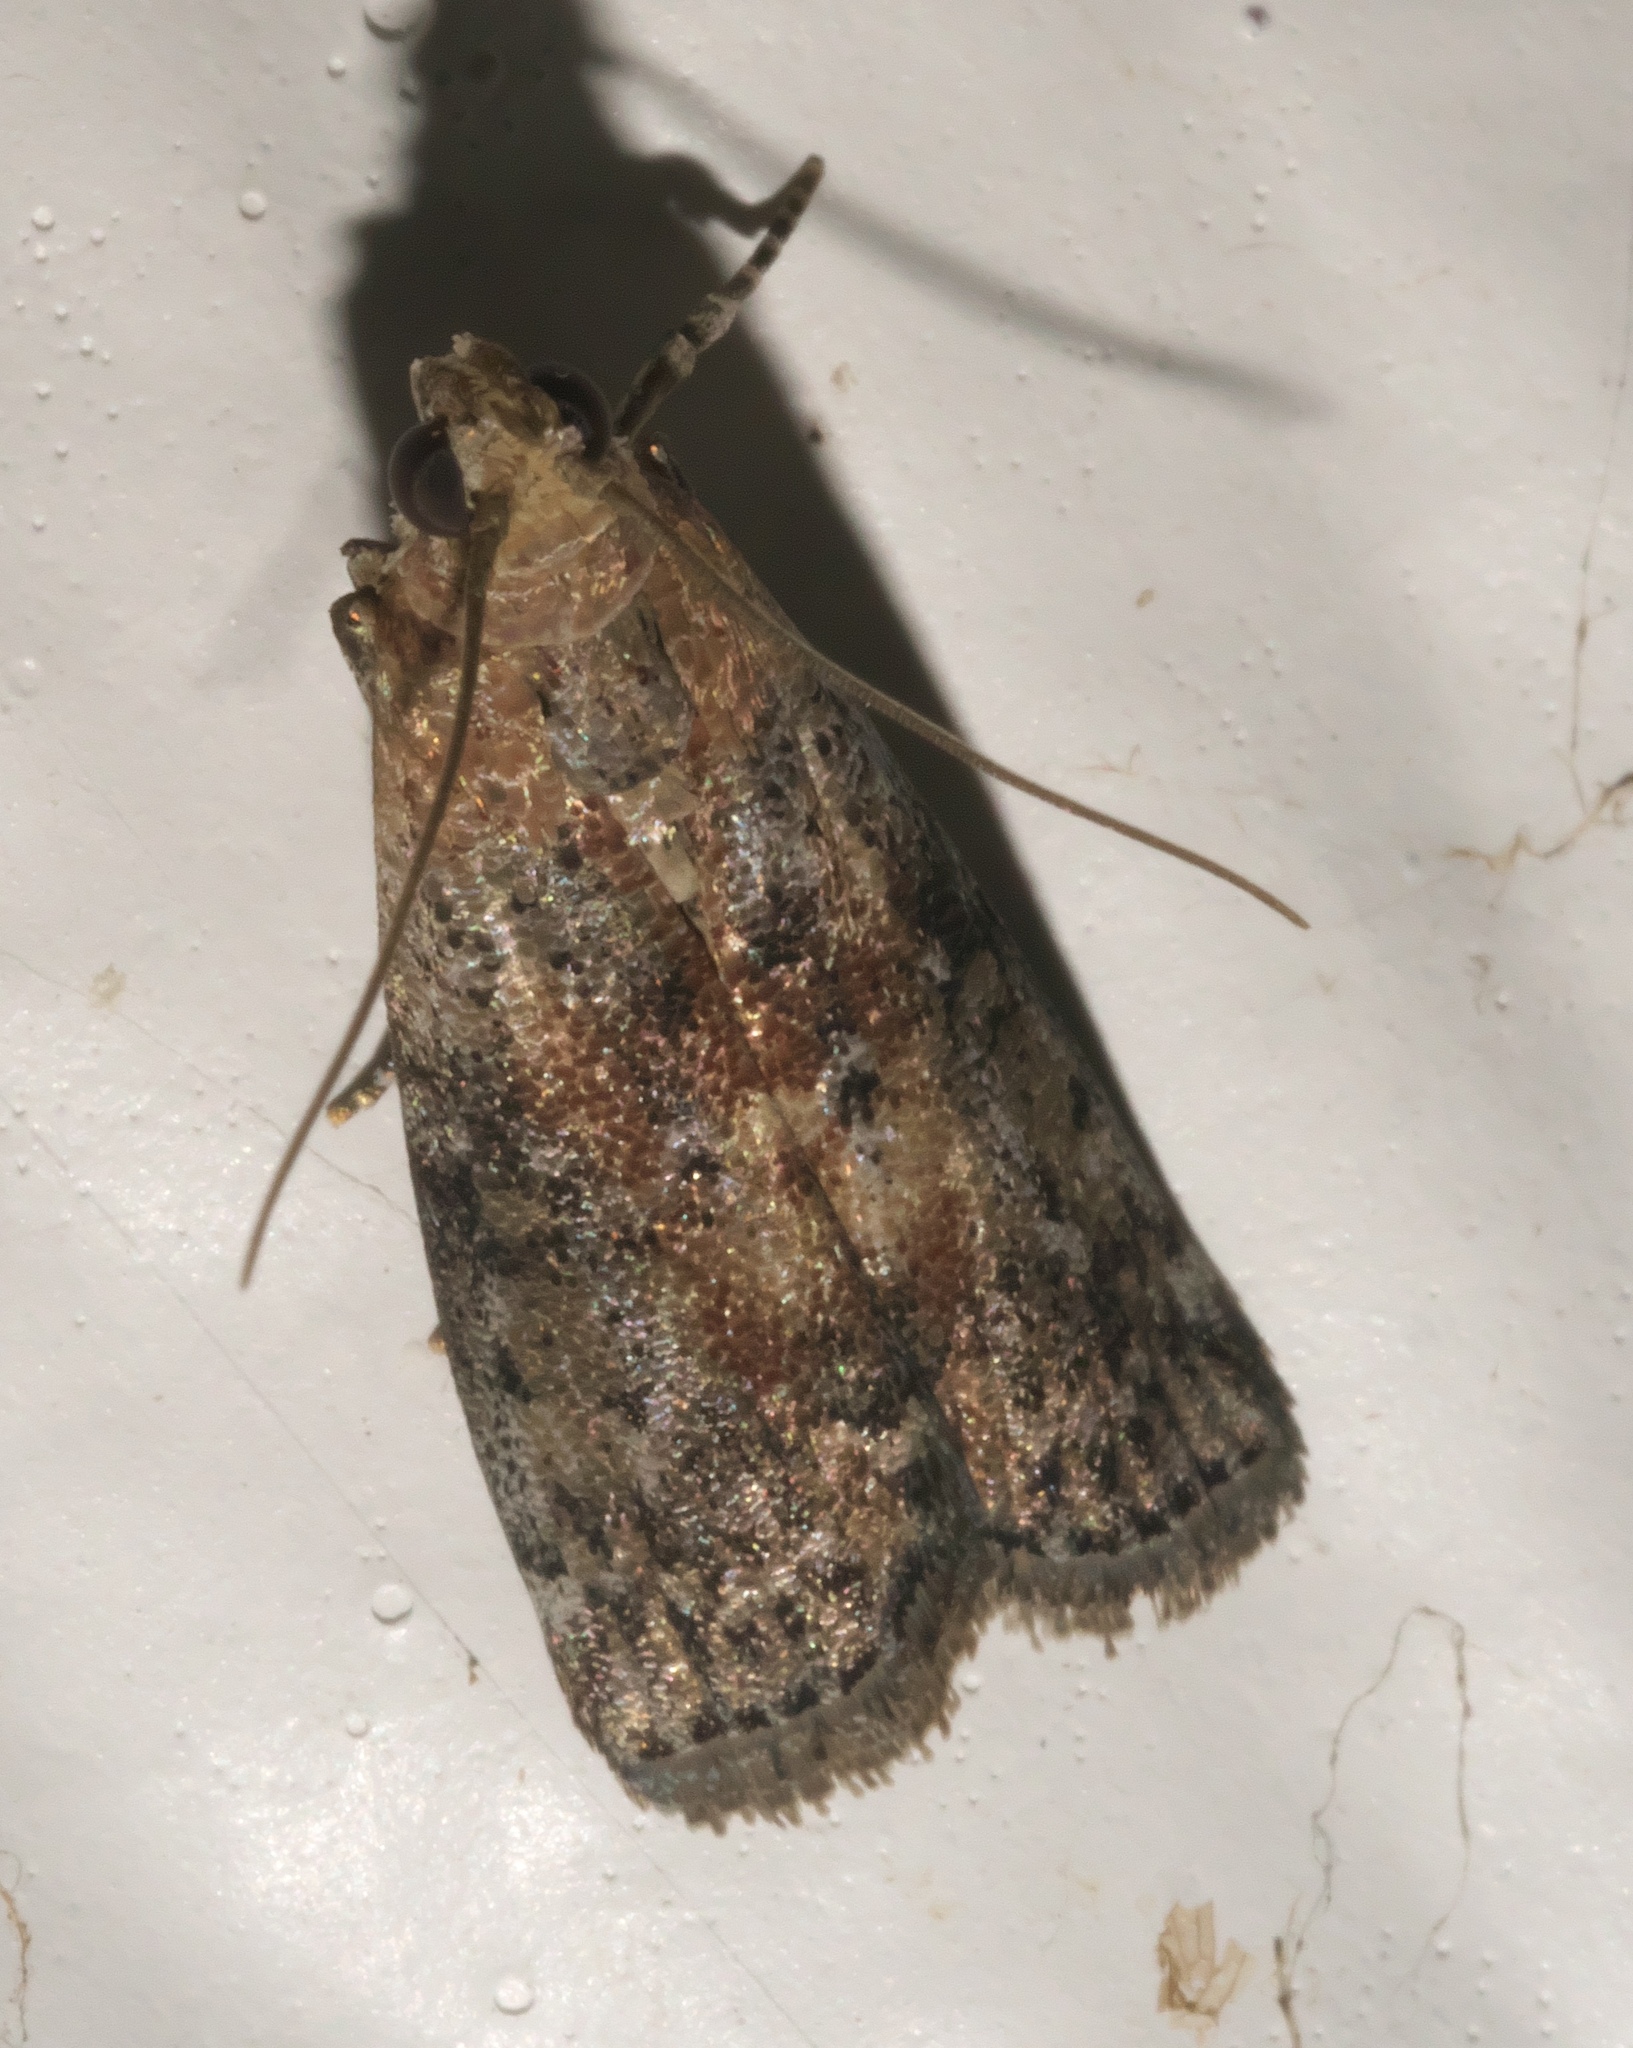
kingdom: Animalia
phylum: Arthropoda
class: Insecta
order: Lepidoptera
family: Pyralidae
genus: Sciota
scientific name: Sciota celtidella
